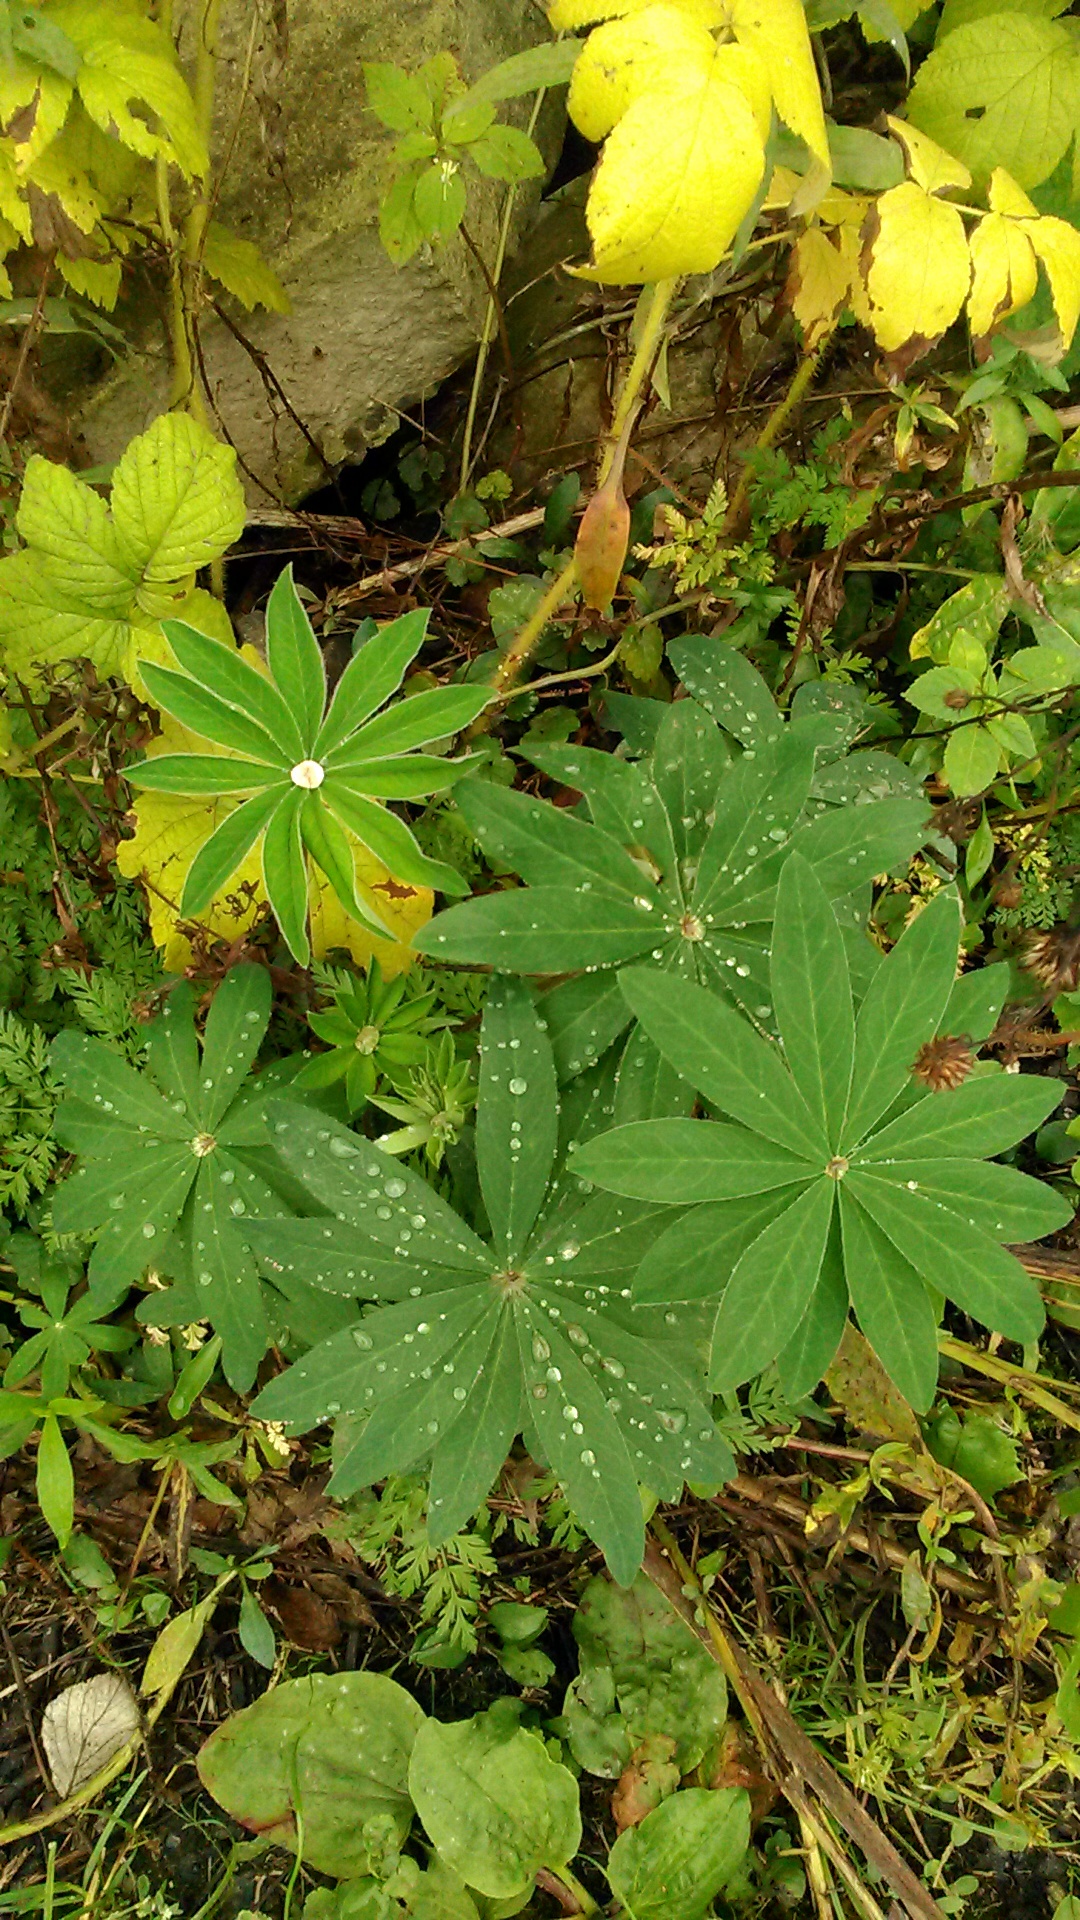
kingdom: Plantae
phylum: Tracheophyta
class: Magnoliopsida
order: Fabales
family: Fabaceae
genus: Lupinus
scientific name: Lupinus polyphyllus
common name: Garden lupin
